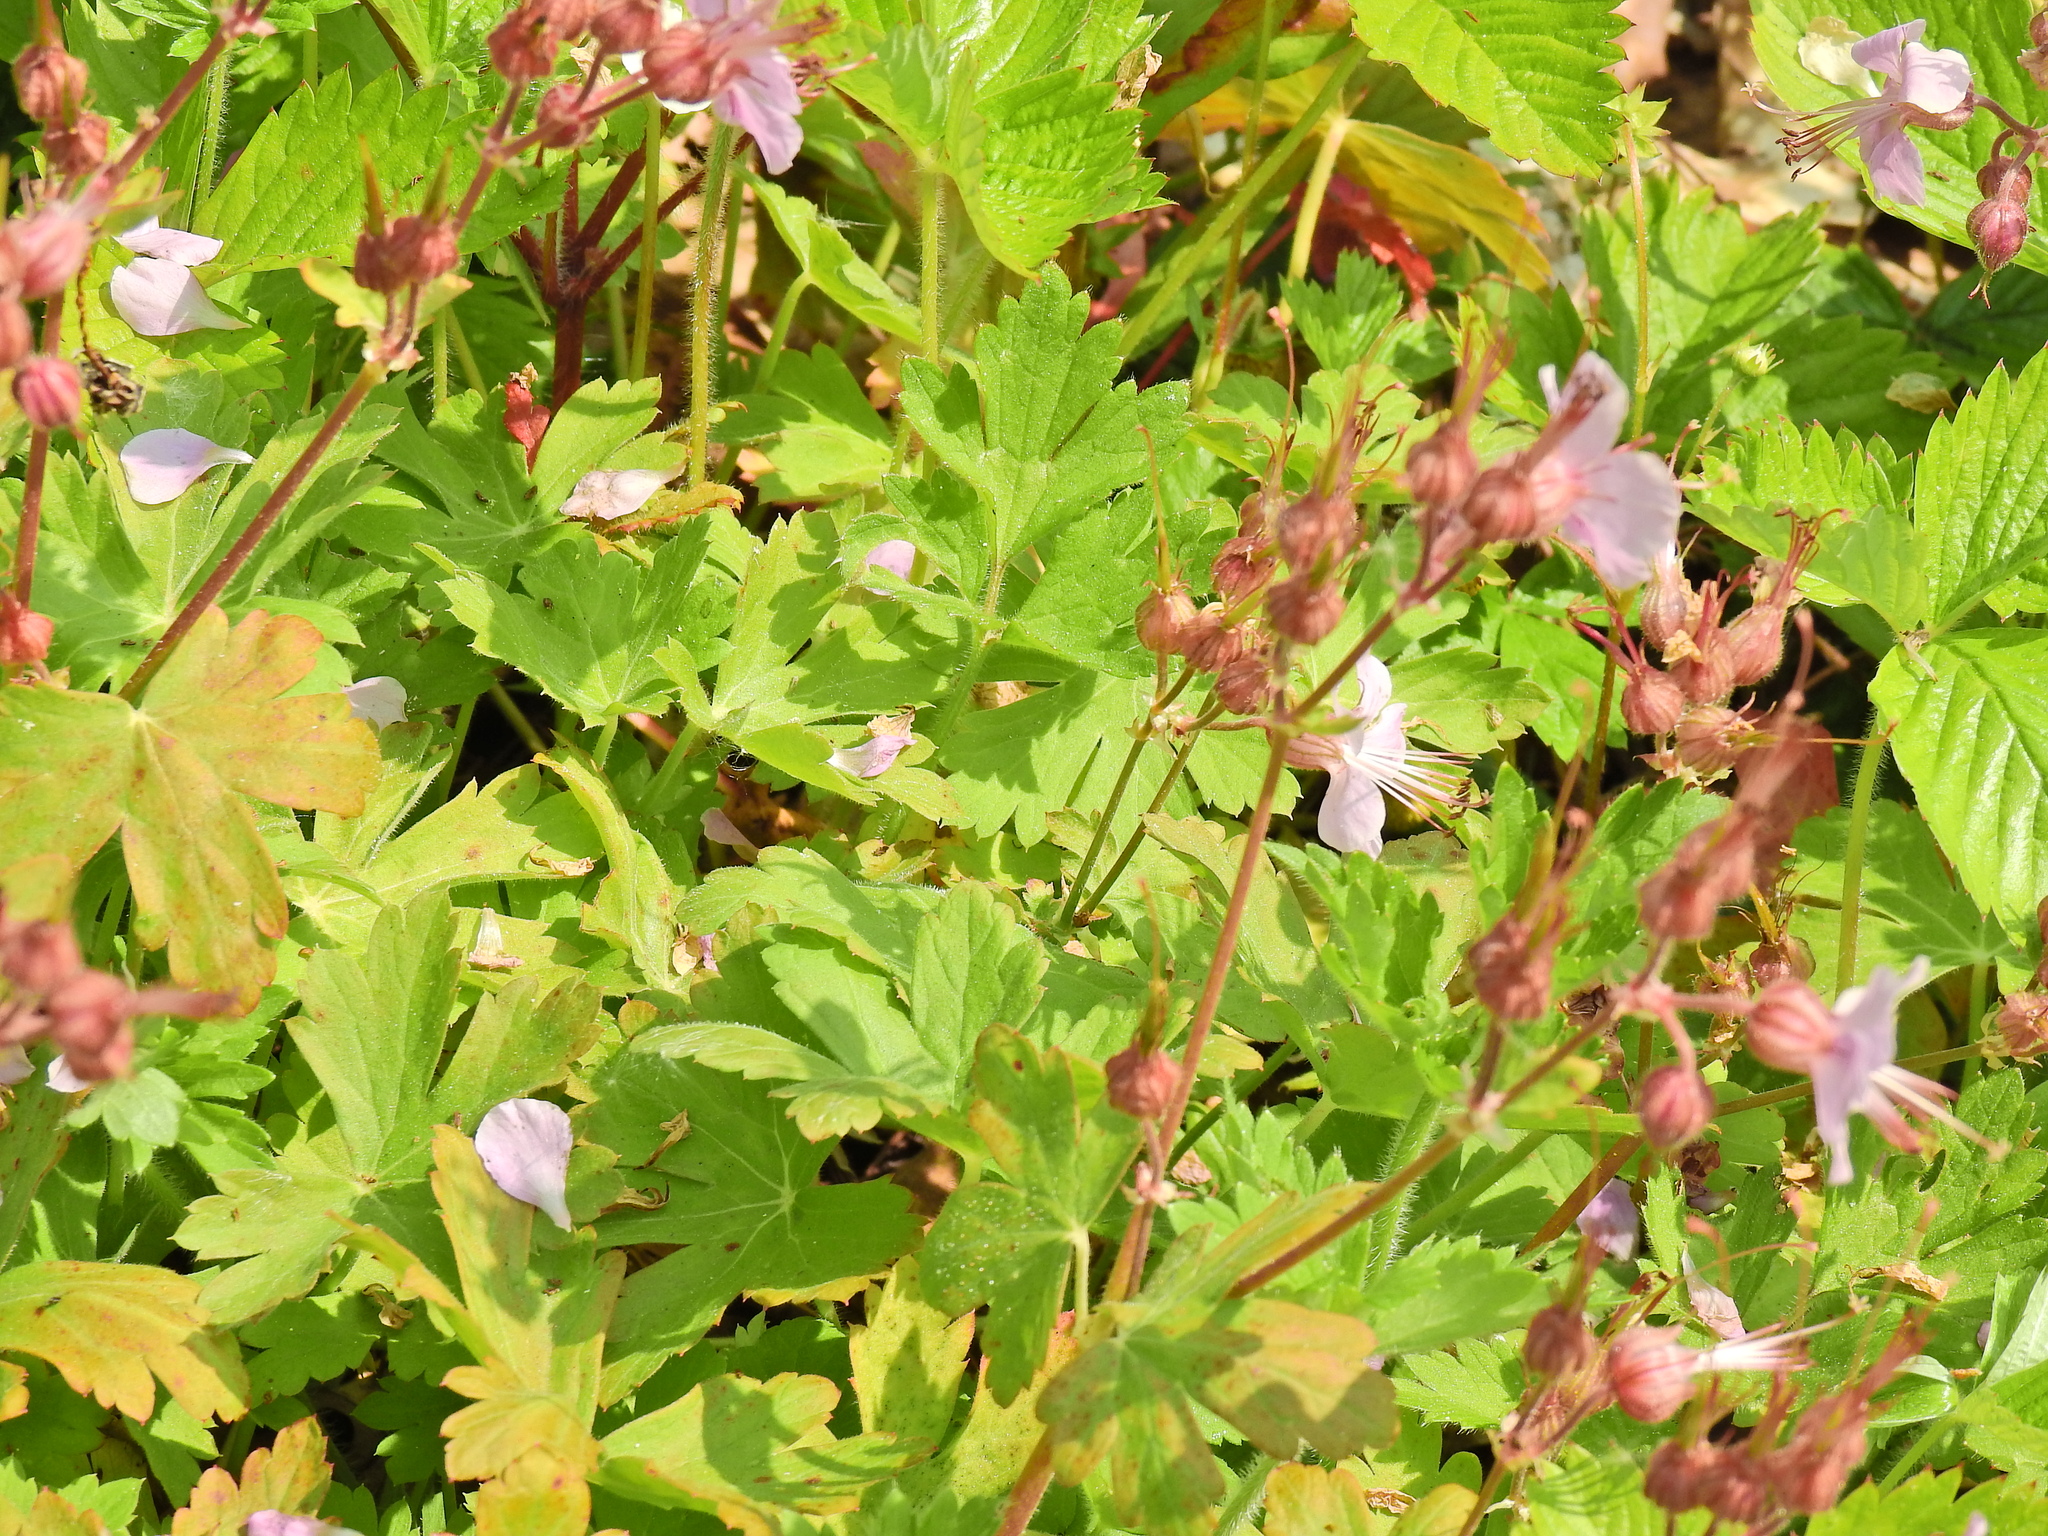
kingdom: Plantae
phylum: Tracheophyta
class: Magnoliopsida
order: Geraniales
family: Geraniaceae
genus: Geranium
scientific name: Geranium macrorrhizum
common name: Rock crane's-bill
